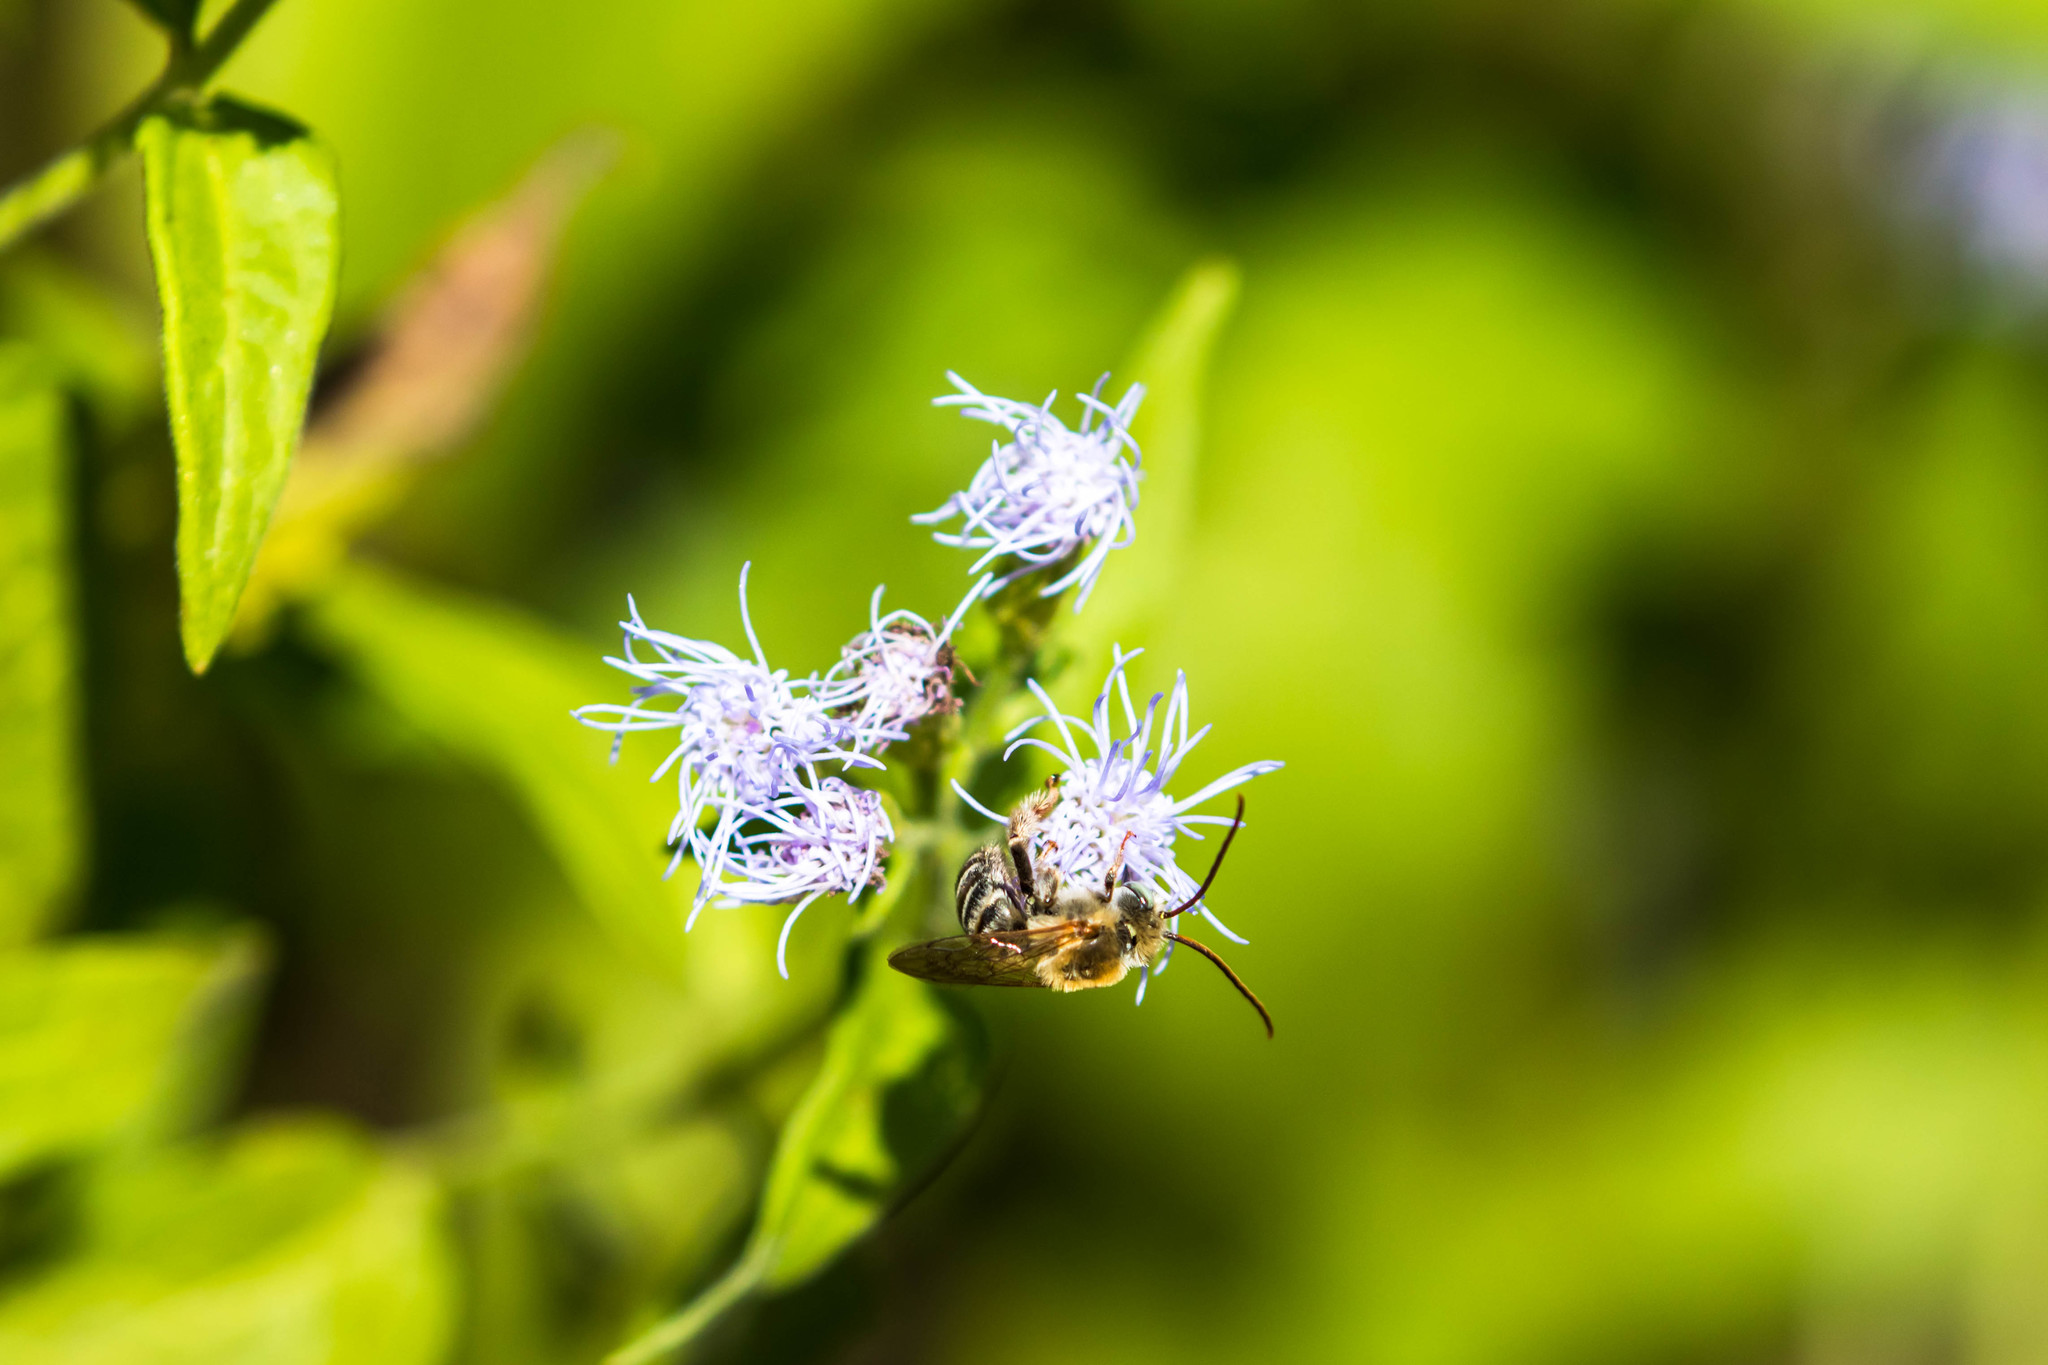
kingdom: Animalia
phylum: Arthropoda
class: Insecta
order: Hymenoptera
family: Apidae
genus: Melissodes
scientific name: Melissodes tepaneca
